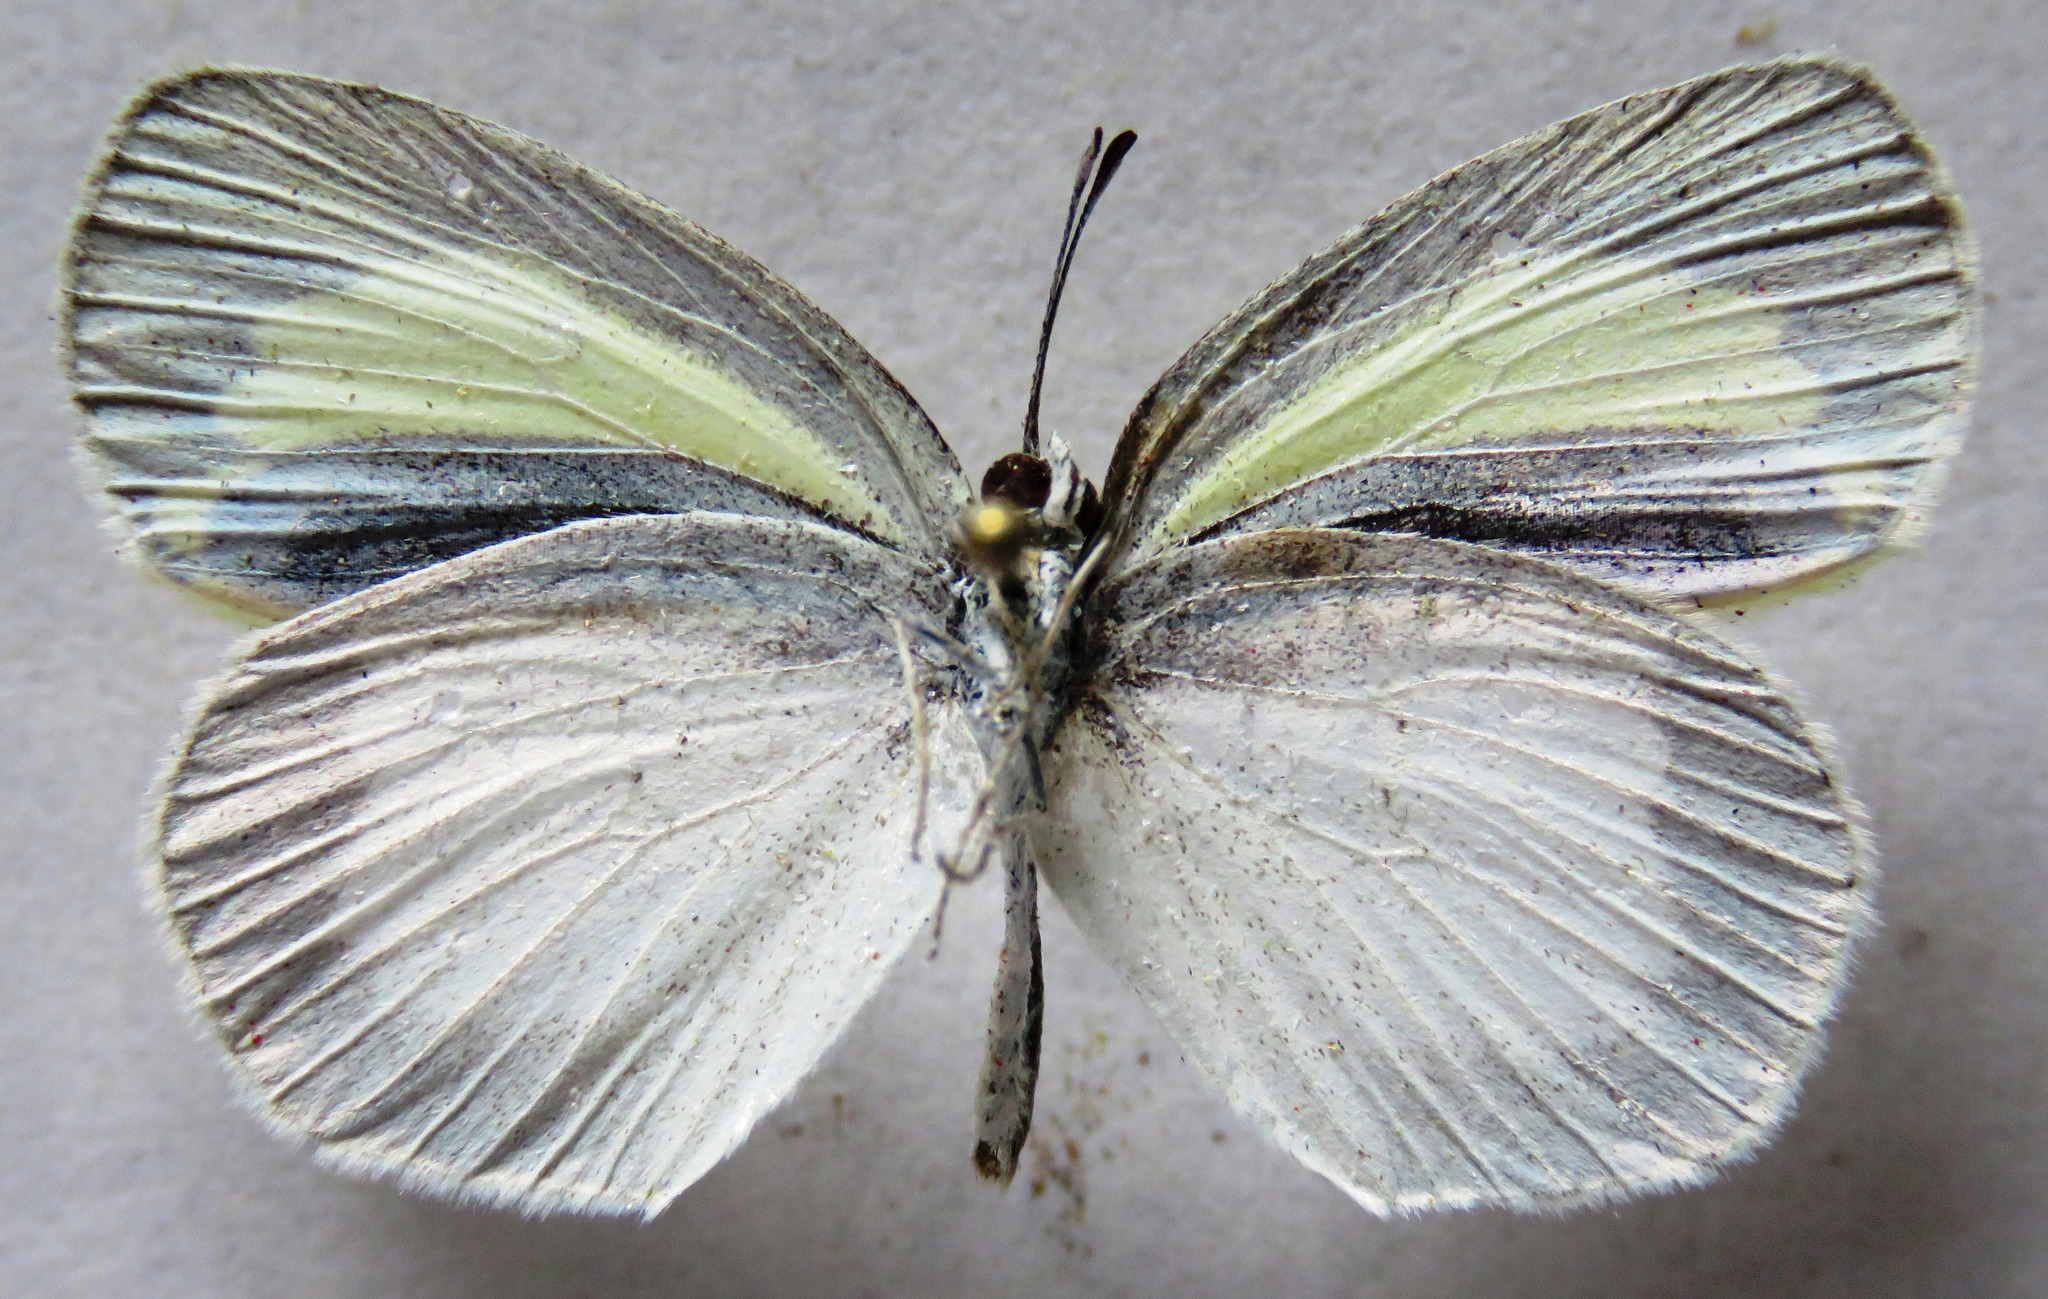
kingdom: Animalia
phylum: Arthropoda
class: Insecta
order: Lepidoptera
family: Pieridae
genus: Eurema
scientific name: Eurema daira
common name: Barred sulphur
